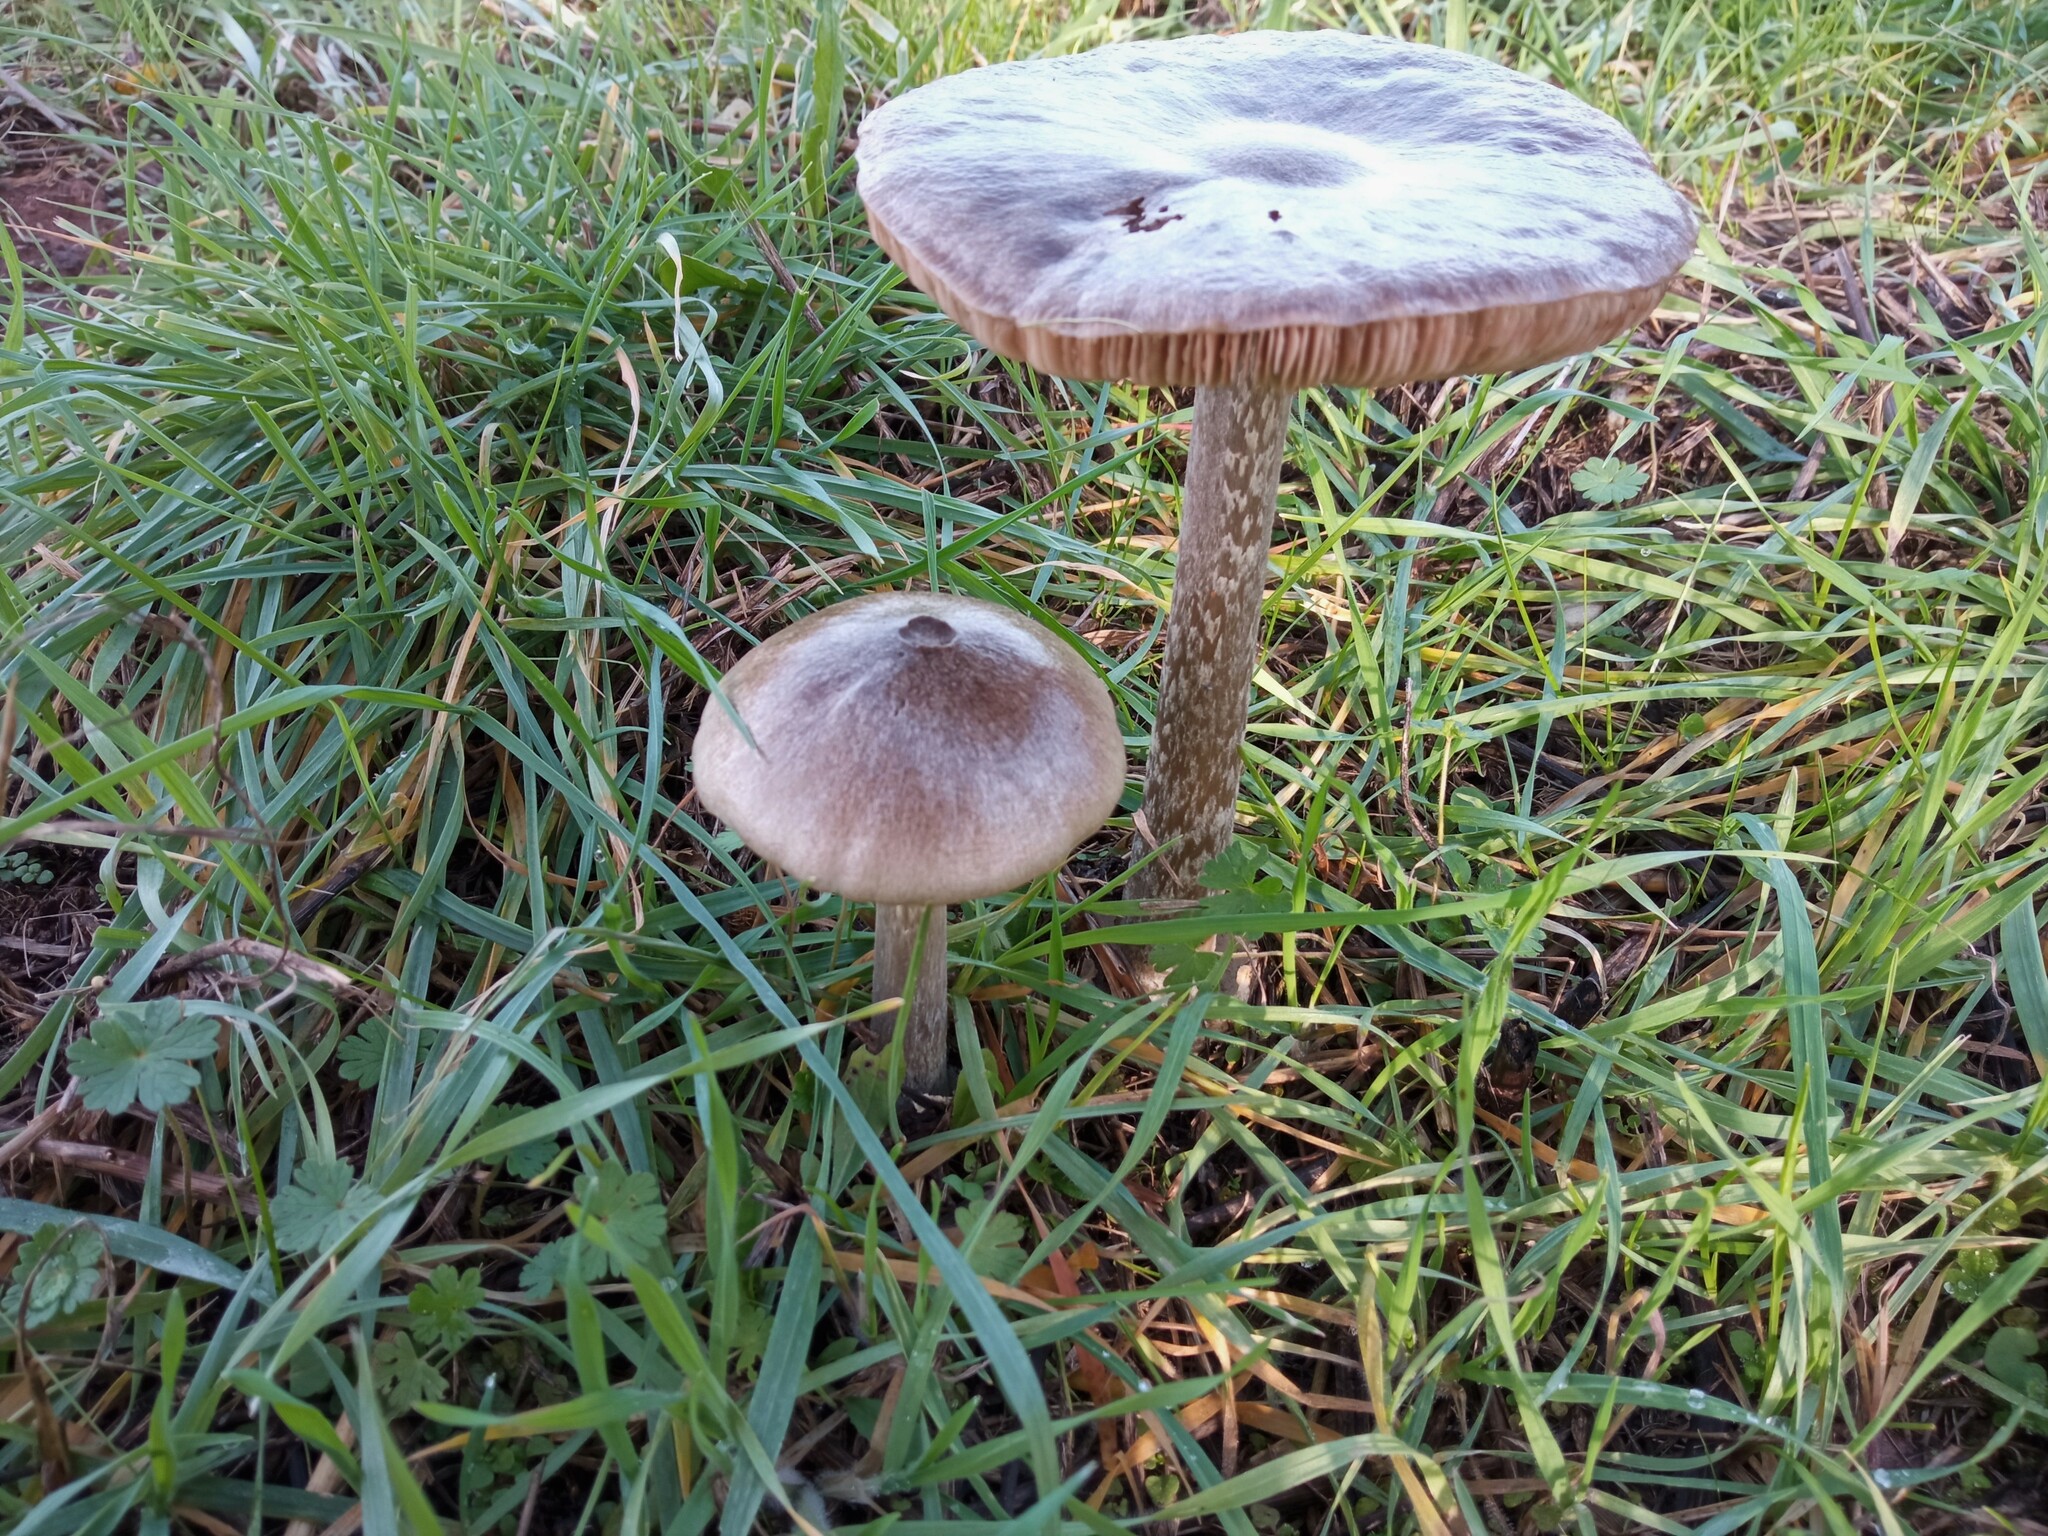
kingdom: Fungi
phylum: Basidiomycota
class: Agaricomycetes
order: Agaricales
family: Pluteaceae
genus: Volvopluteus
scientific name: Volvopluteus gloiocephalus
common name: Stubble rosegill
